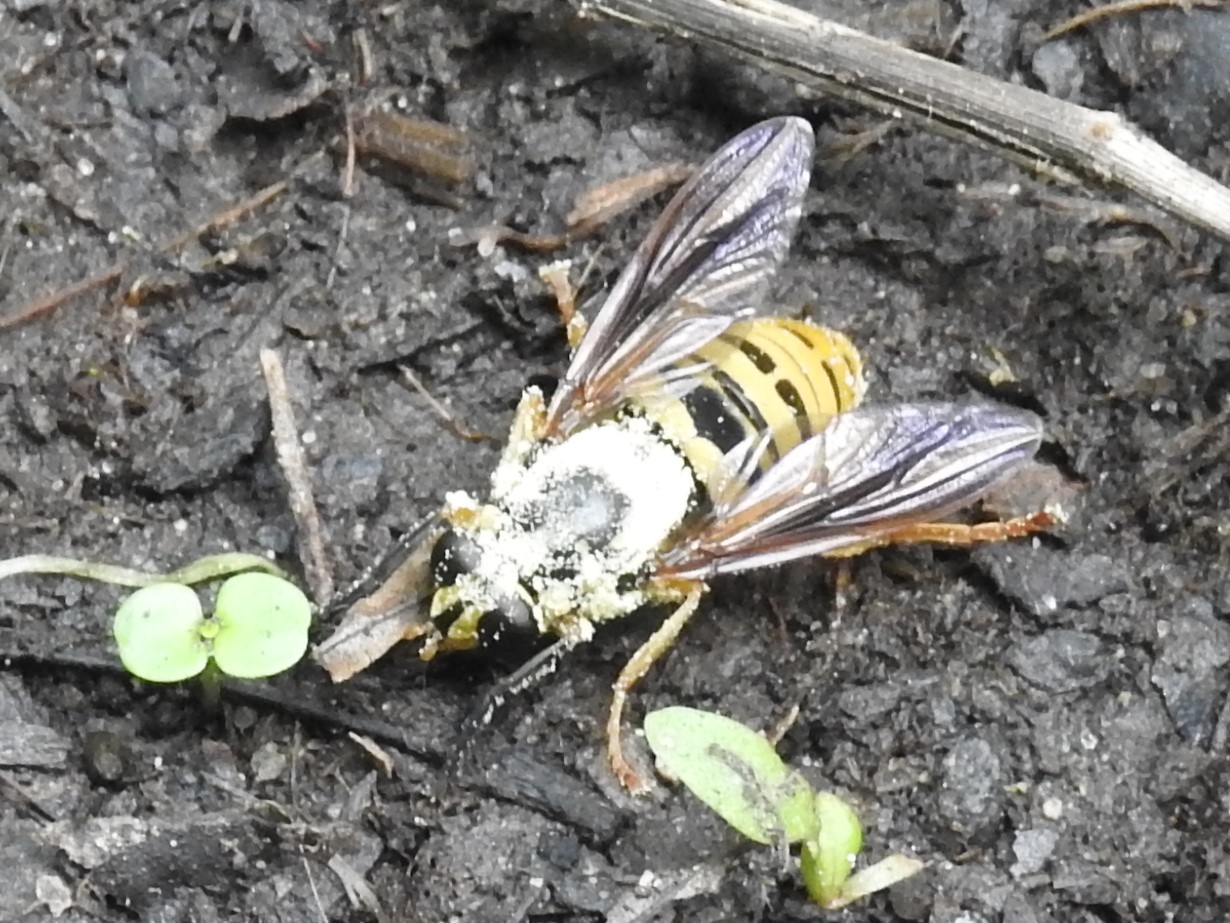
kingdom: Animalia
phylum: Arthropoda
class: Insecta
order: Diptera
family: Syrphidae
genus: Temnostoma
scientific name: Temnostoma excentricum
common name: Black-spotted falsehorn
